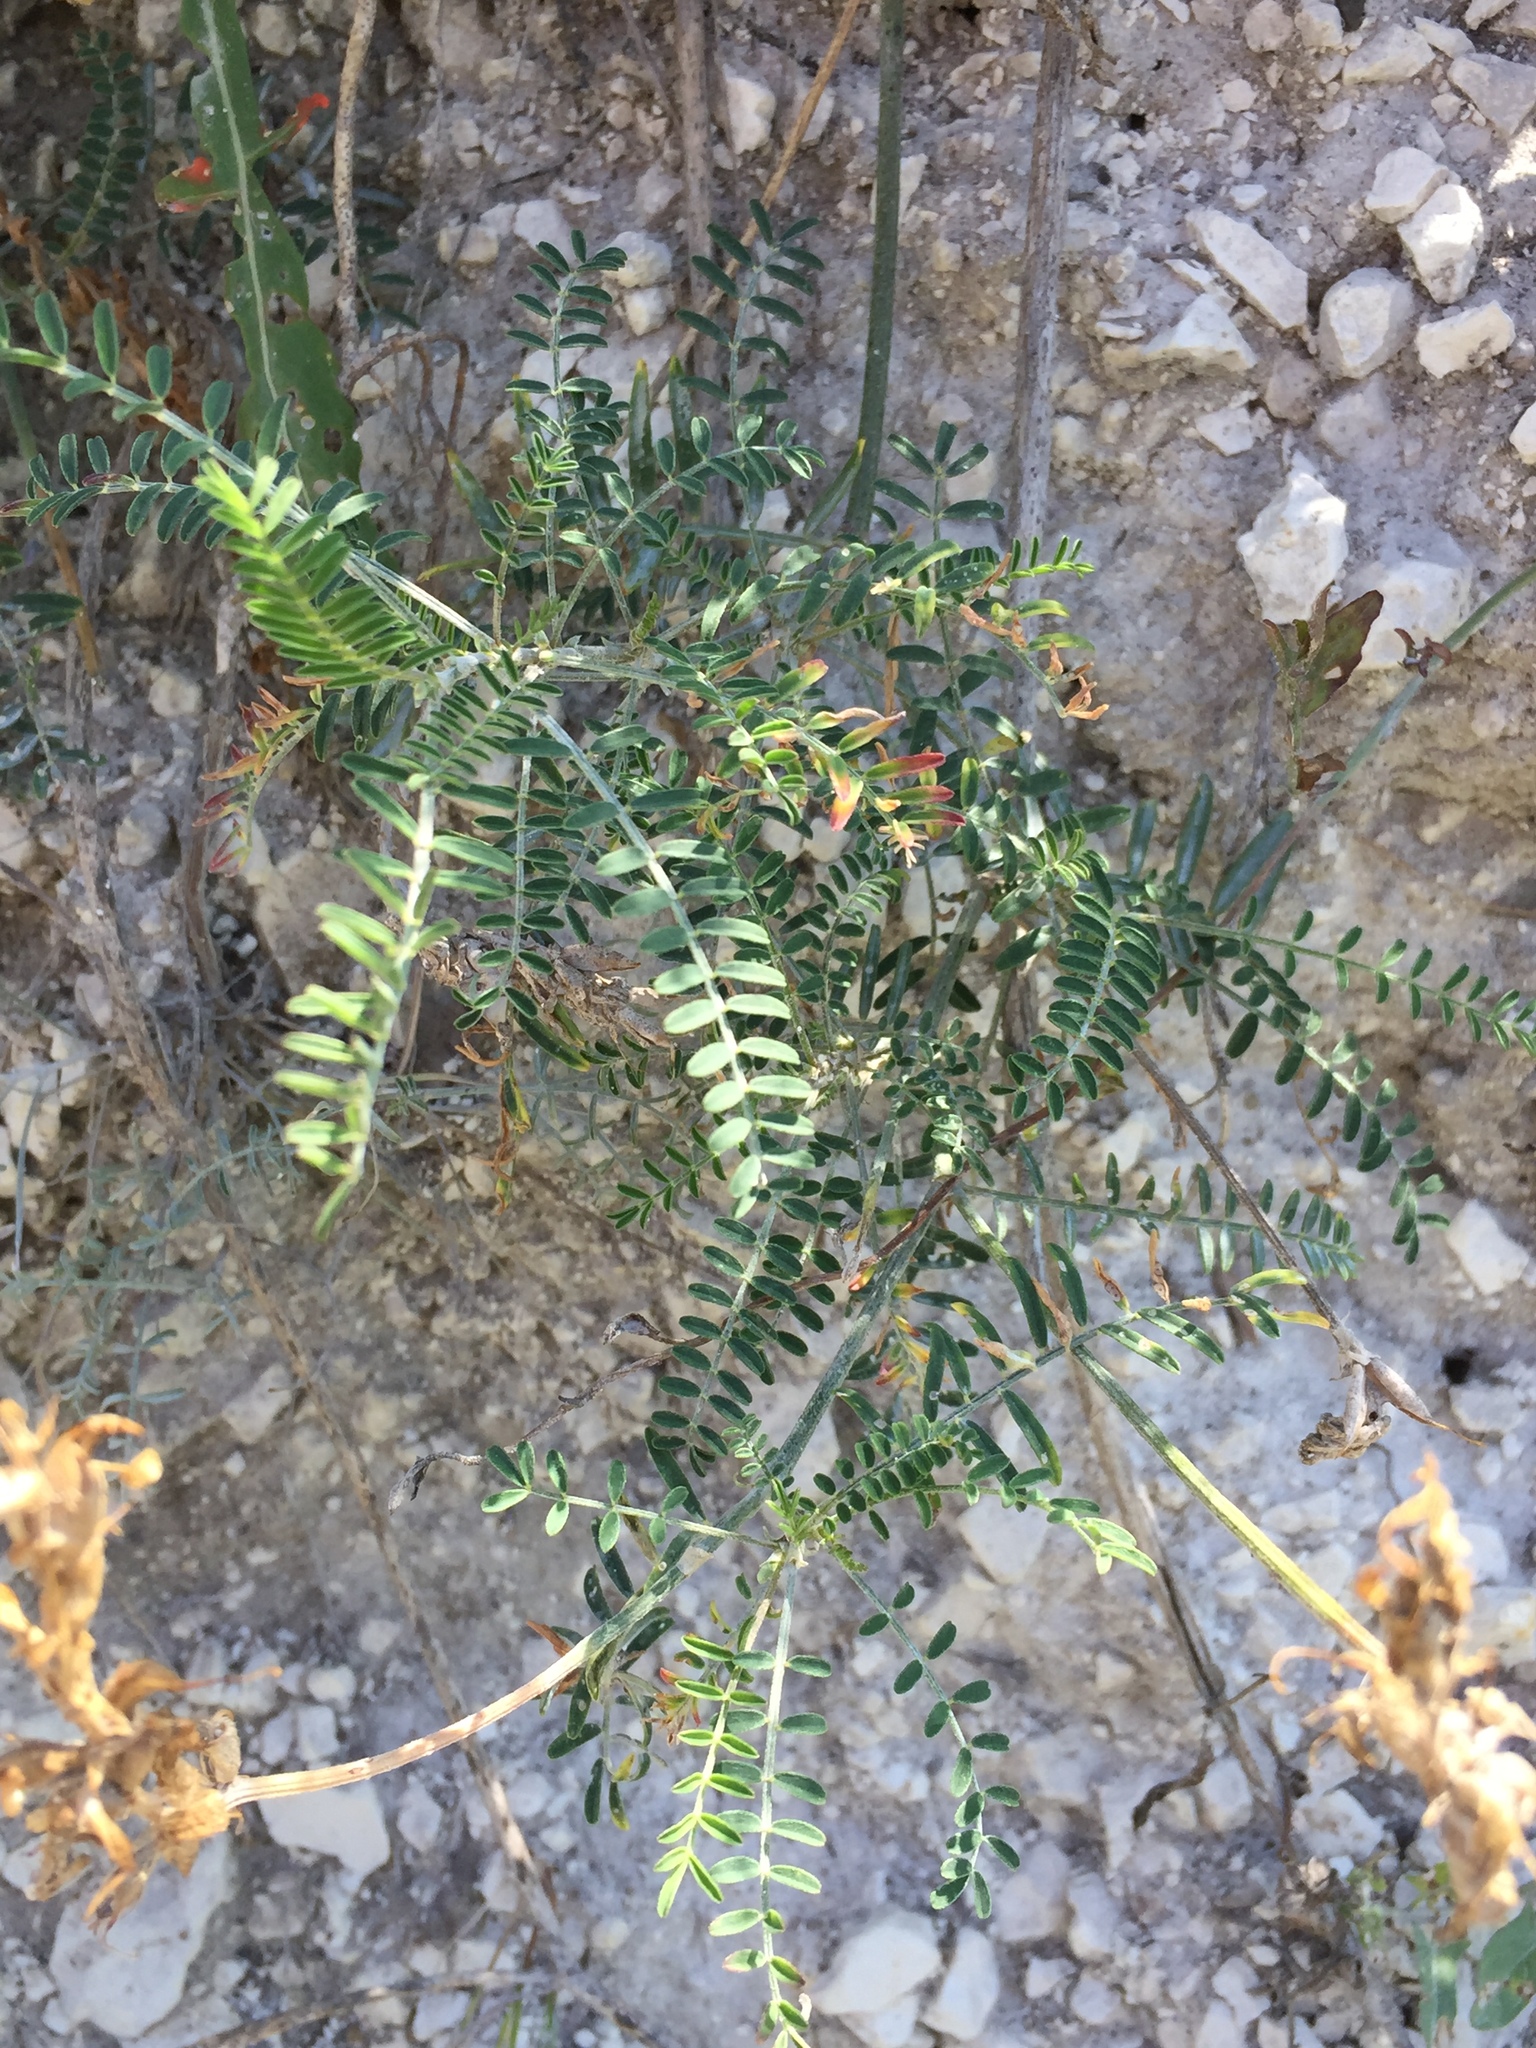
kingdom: Plantae
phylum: Tracheophyta
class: Magnoliopsida
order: Fabales
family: Fabaceae
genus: Astragalus
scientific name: Astragalus onobrychis
